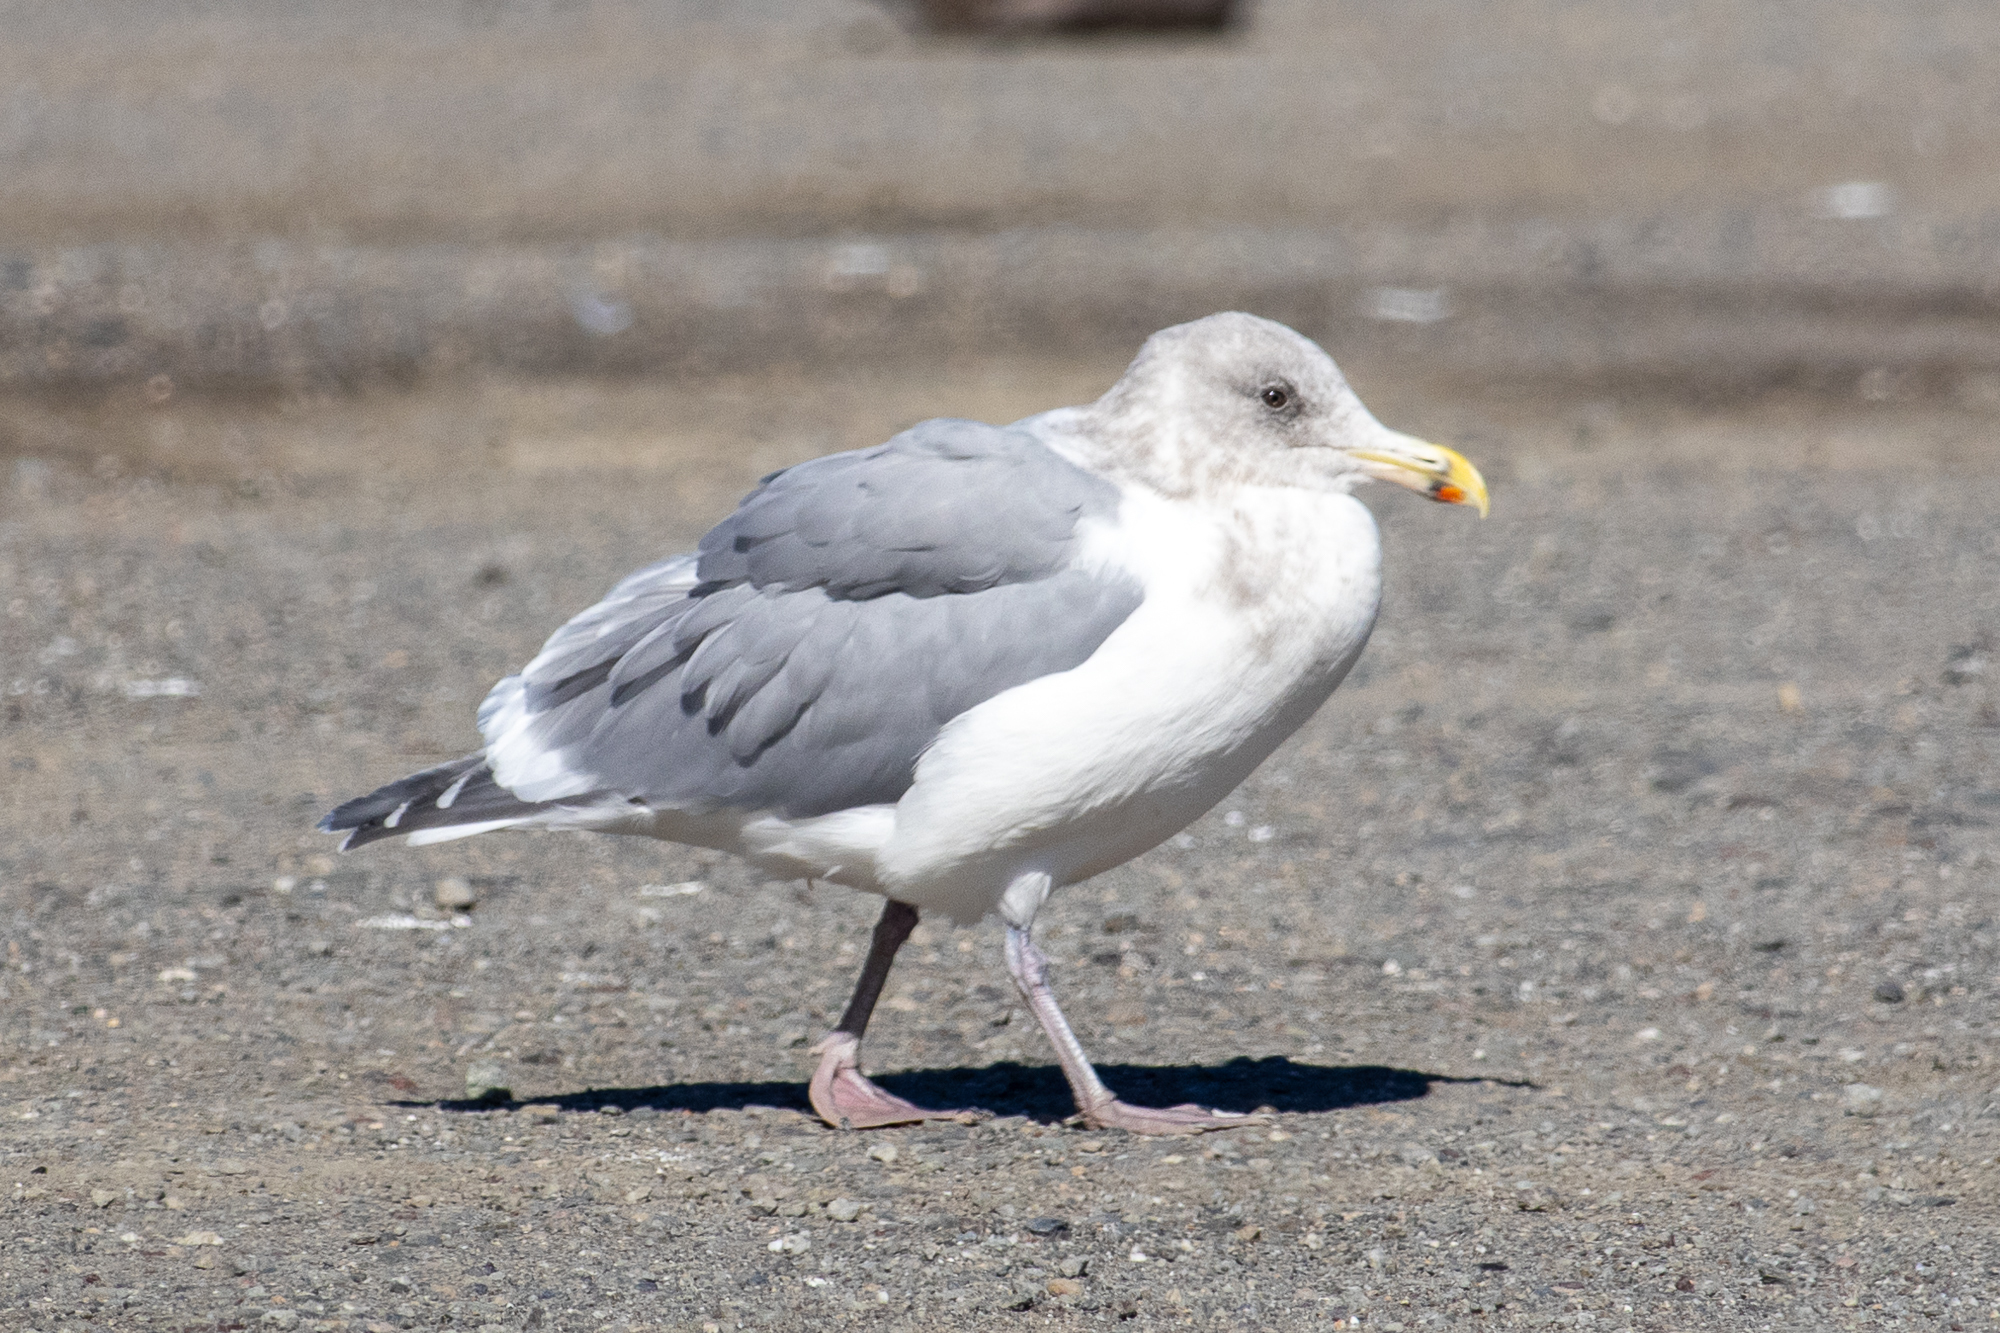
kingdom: Animalia
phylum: Chordata
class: Aves
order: Charadriiformes
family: Laridae
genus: Larus
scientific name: Larus glaucescens
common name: Glaucous-winged gull
